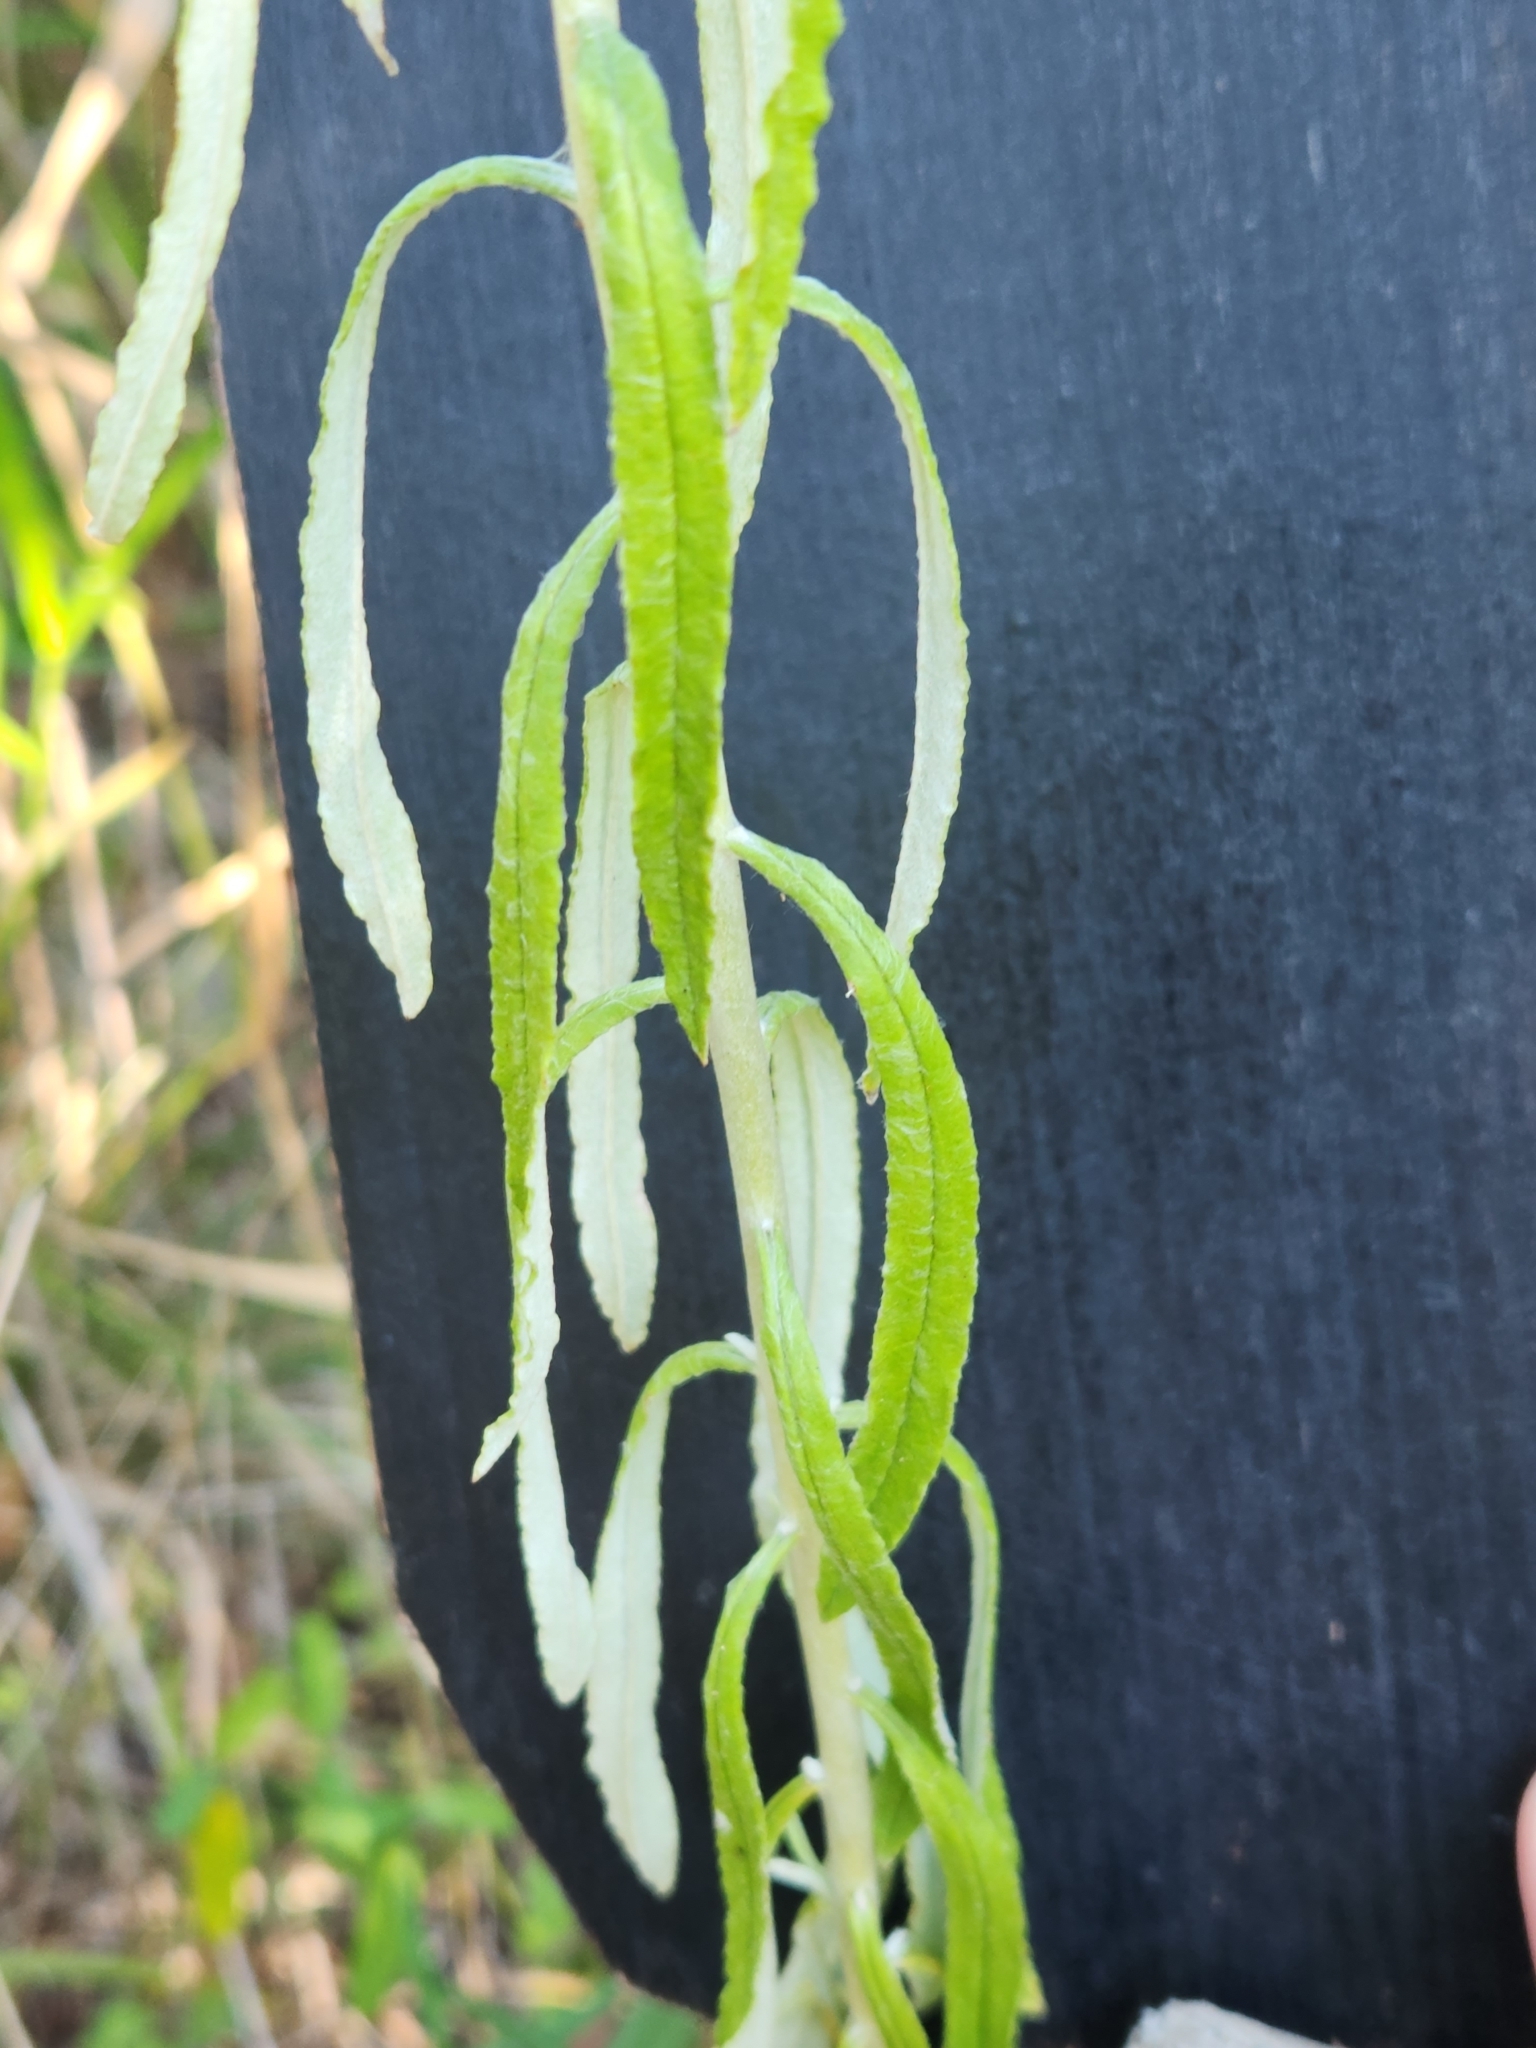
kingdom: Plantae
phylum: Tracheophyta
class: Magnoliopsida
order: Asterales
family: Asteraceae
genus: Pseudognaphalium
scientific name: Pseudognaphalium obtusifolium
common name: Eastern rabbit-tobacco
